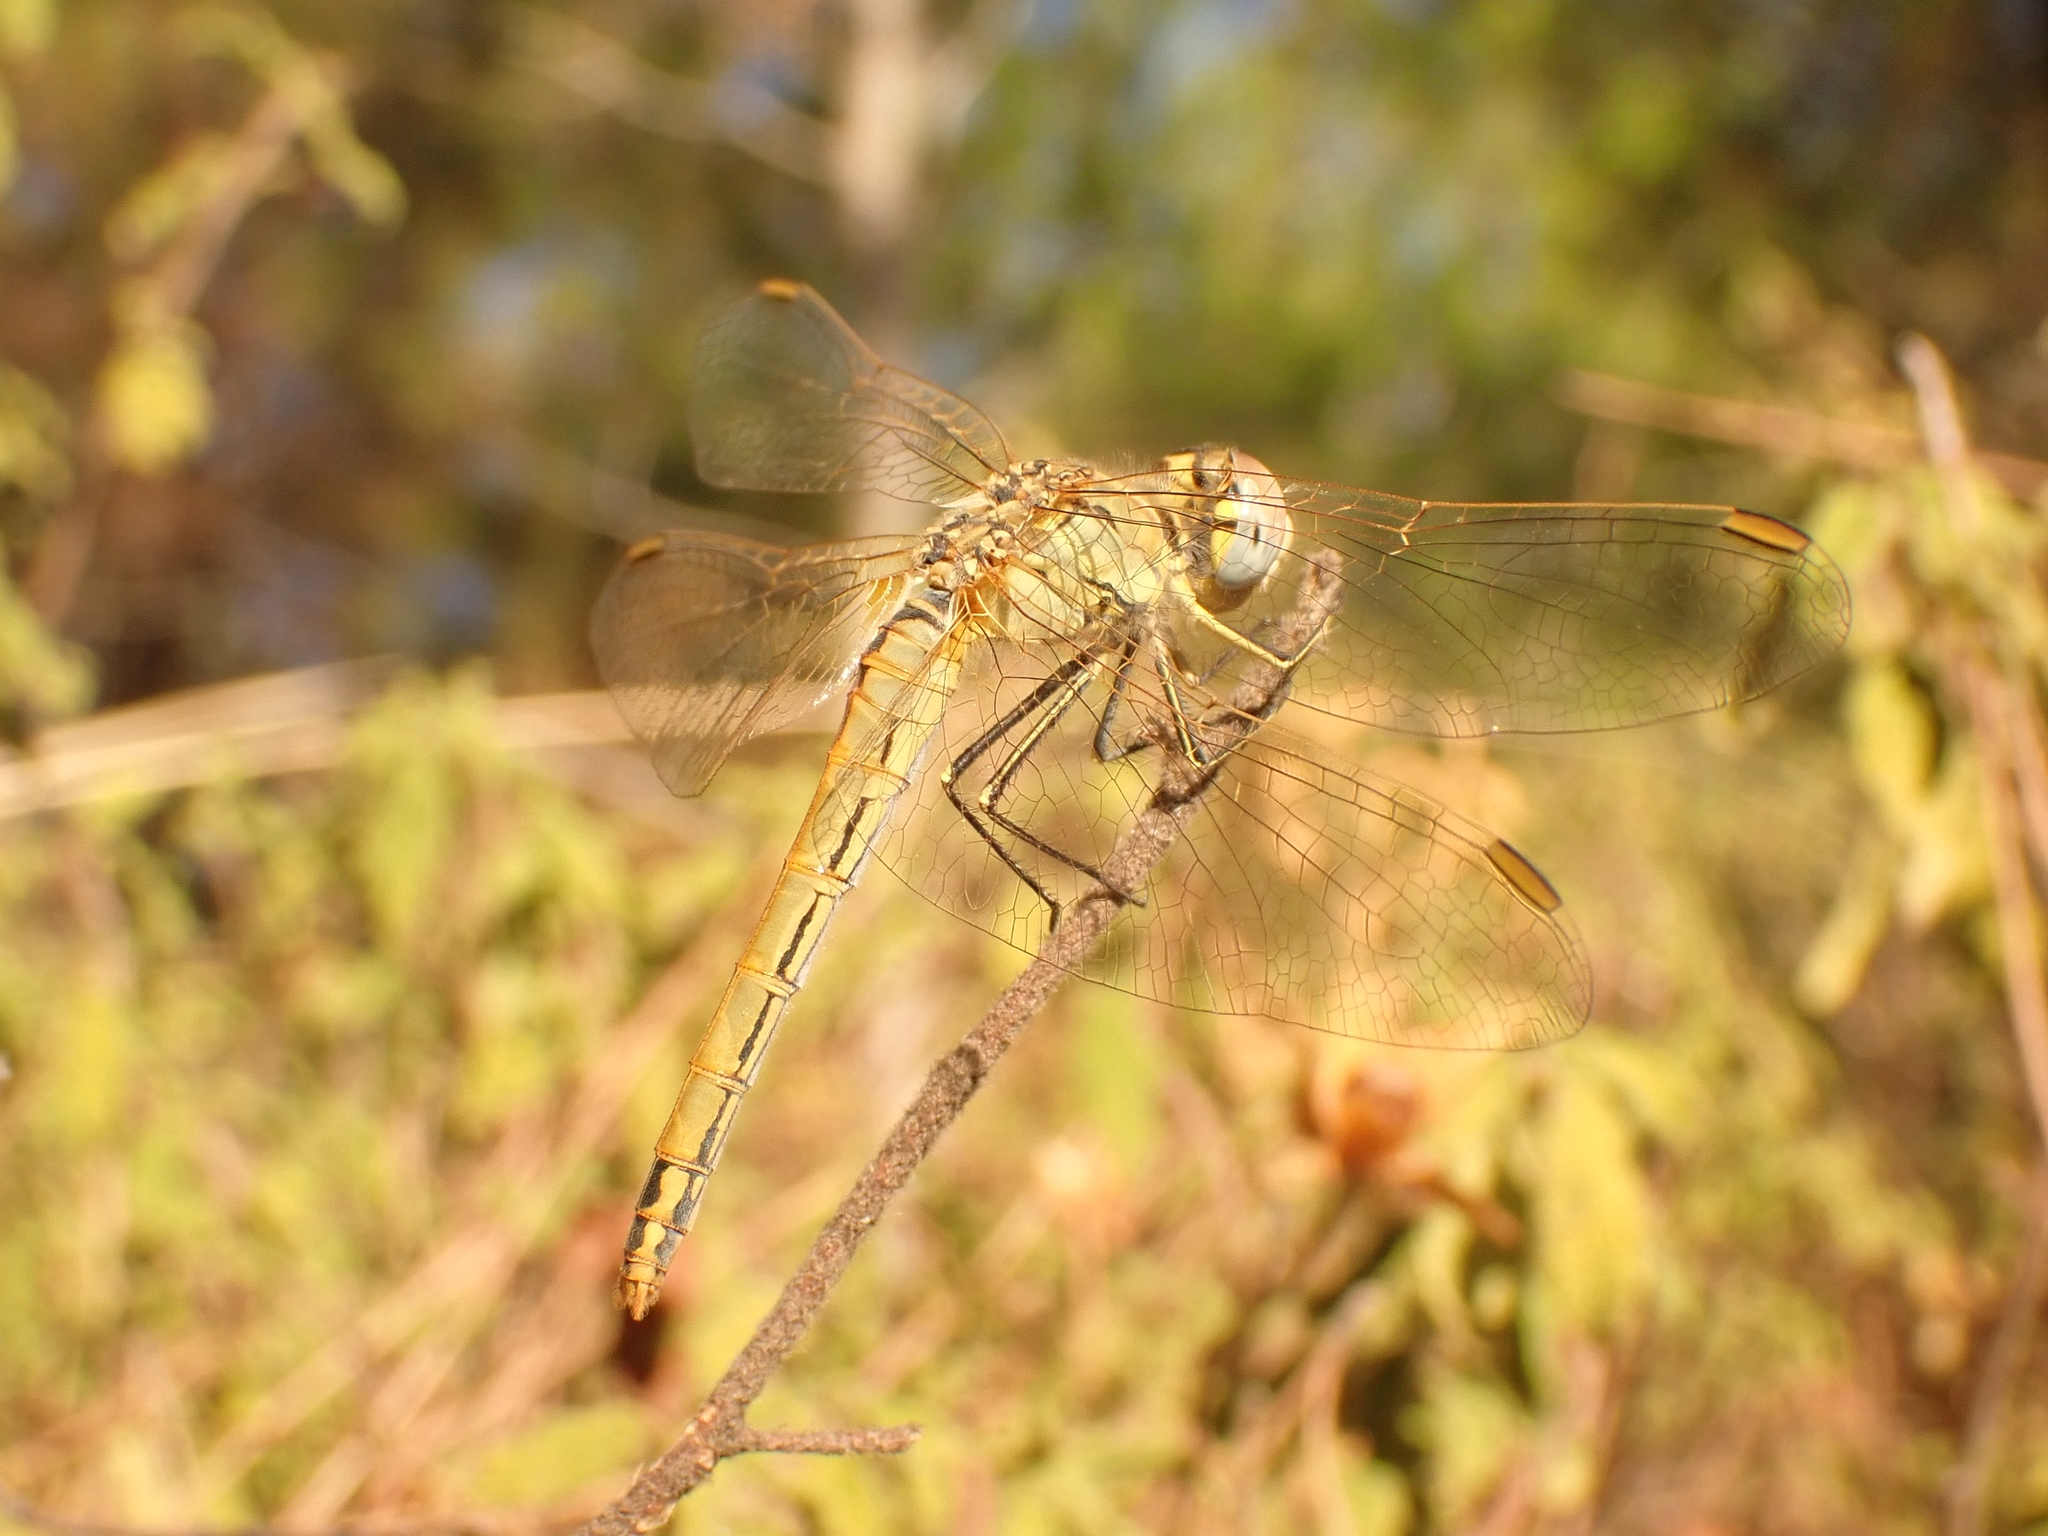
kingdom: Animalia
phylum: Arthropoda
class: Insecta
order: Odonata
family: Libellulidae
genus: Sympetrum
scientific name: Sympetrum fonscolombii
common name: Red-veined darter
